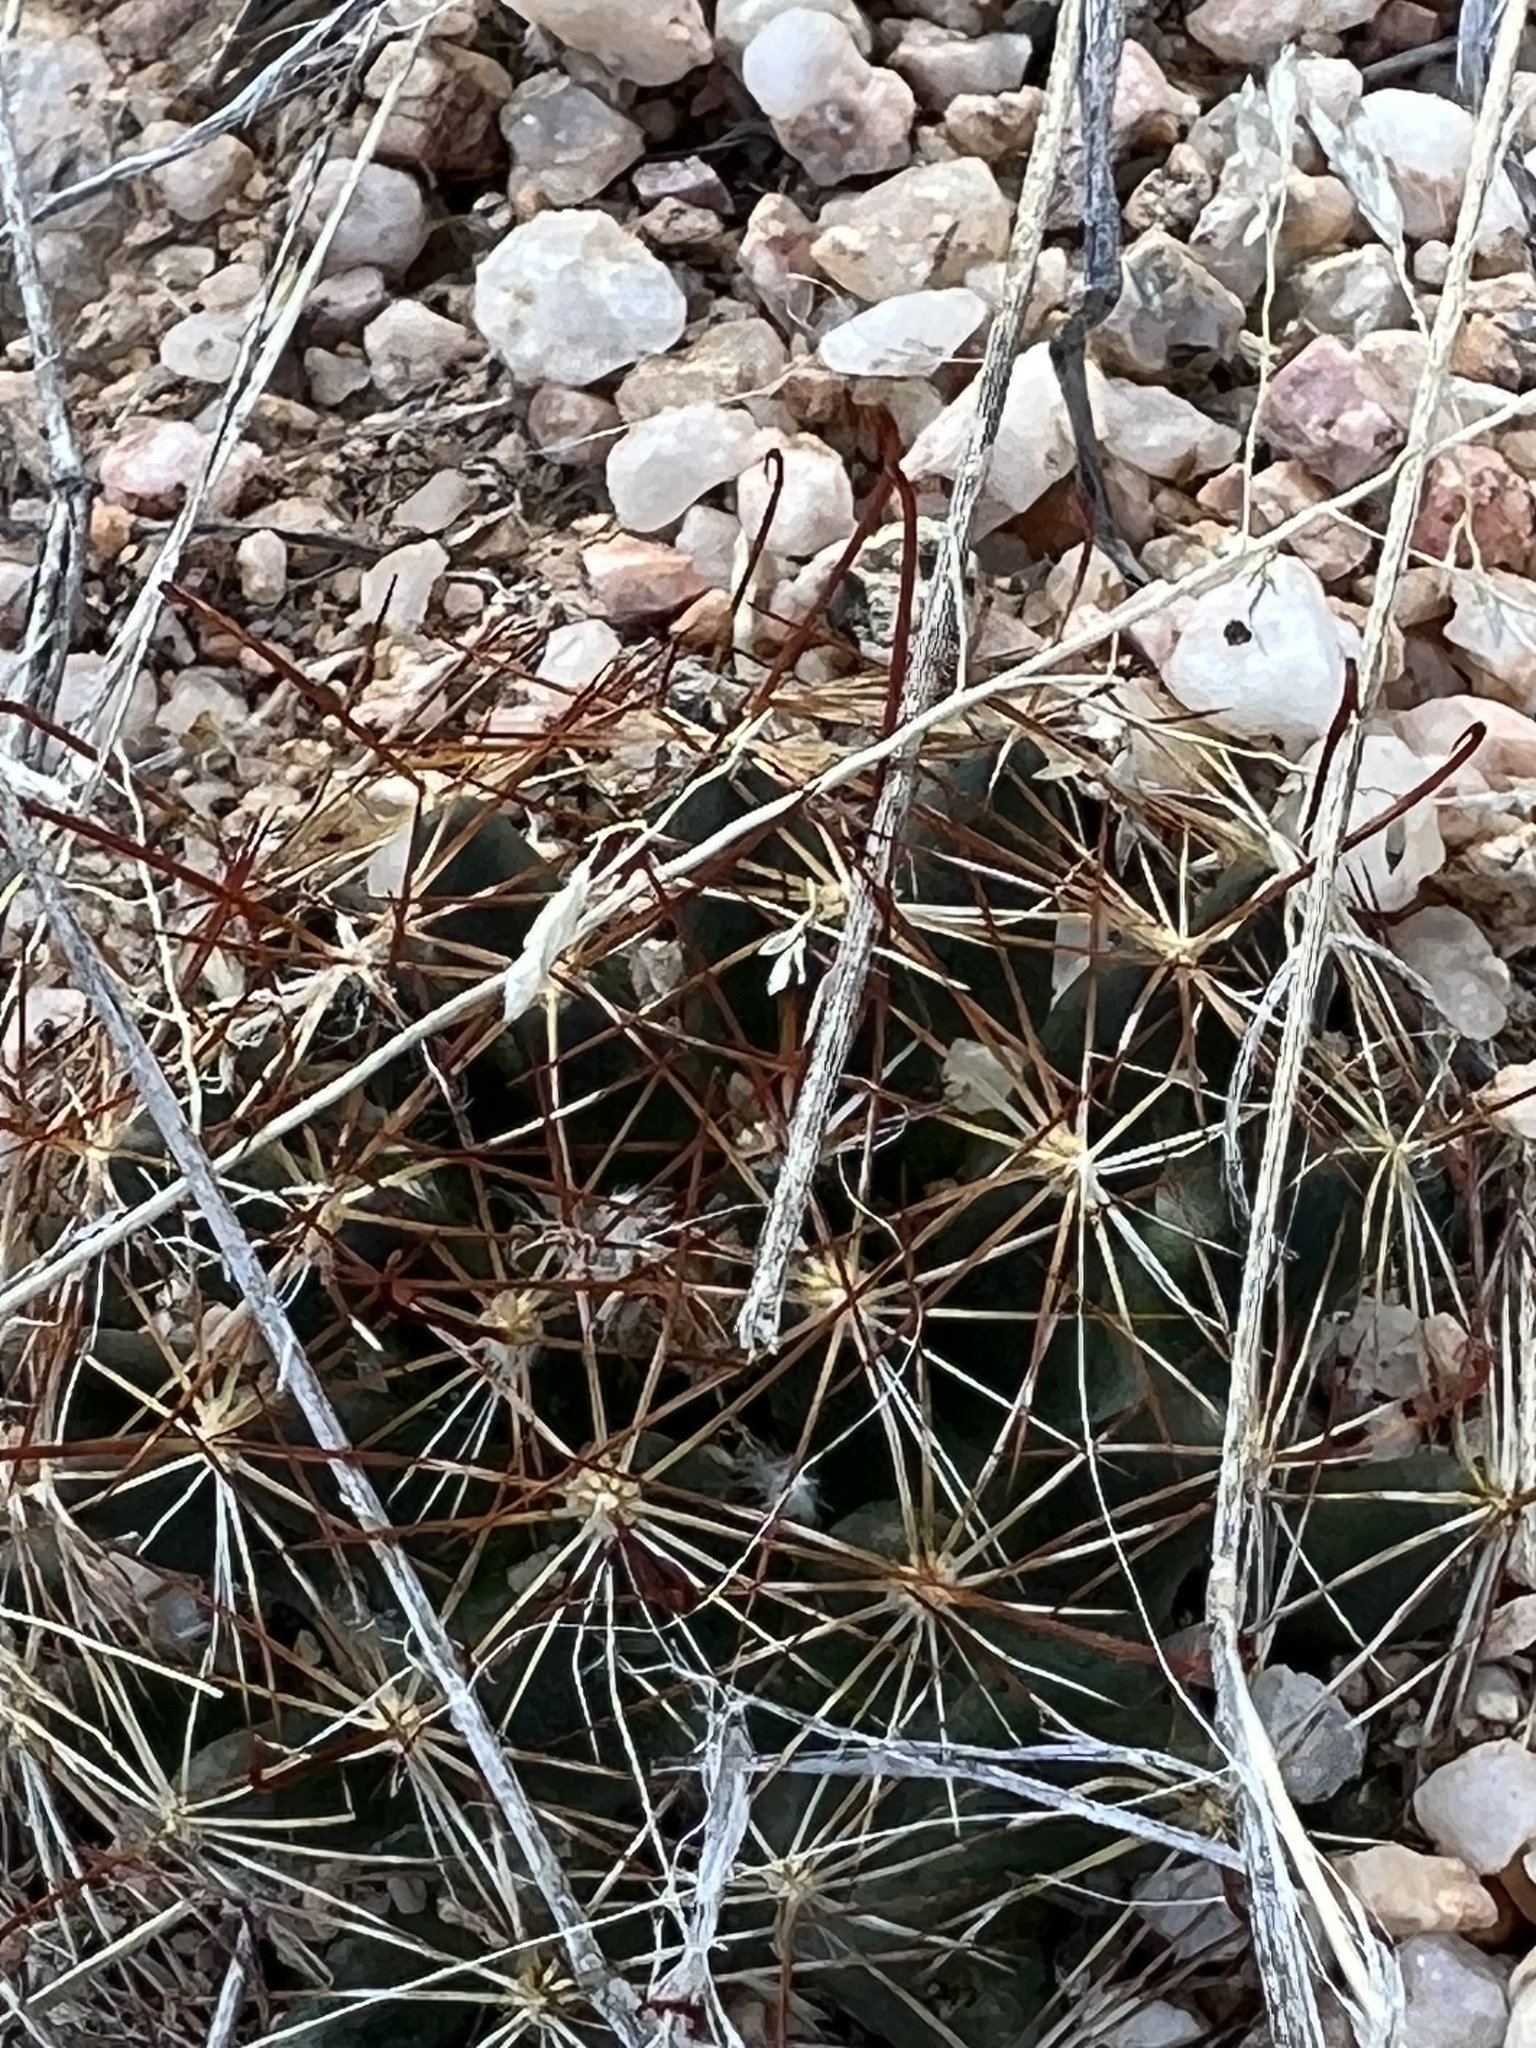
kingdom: Plantae
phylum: Tracheophyta
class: Magnoliopsida
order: Caryophyllales
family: Cactaceae
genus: Cochemiea
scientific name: Cochemiea wrightii
